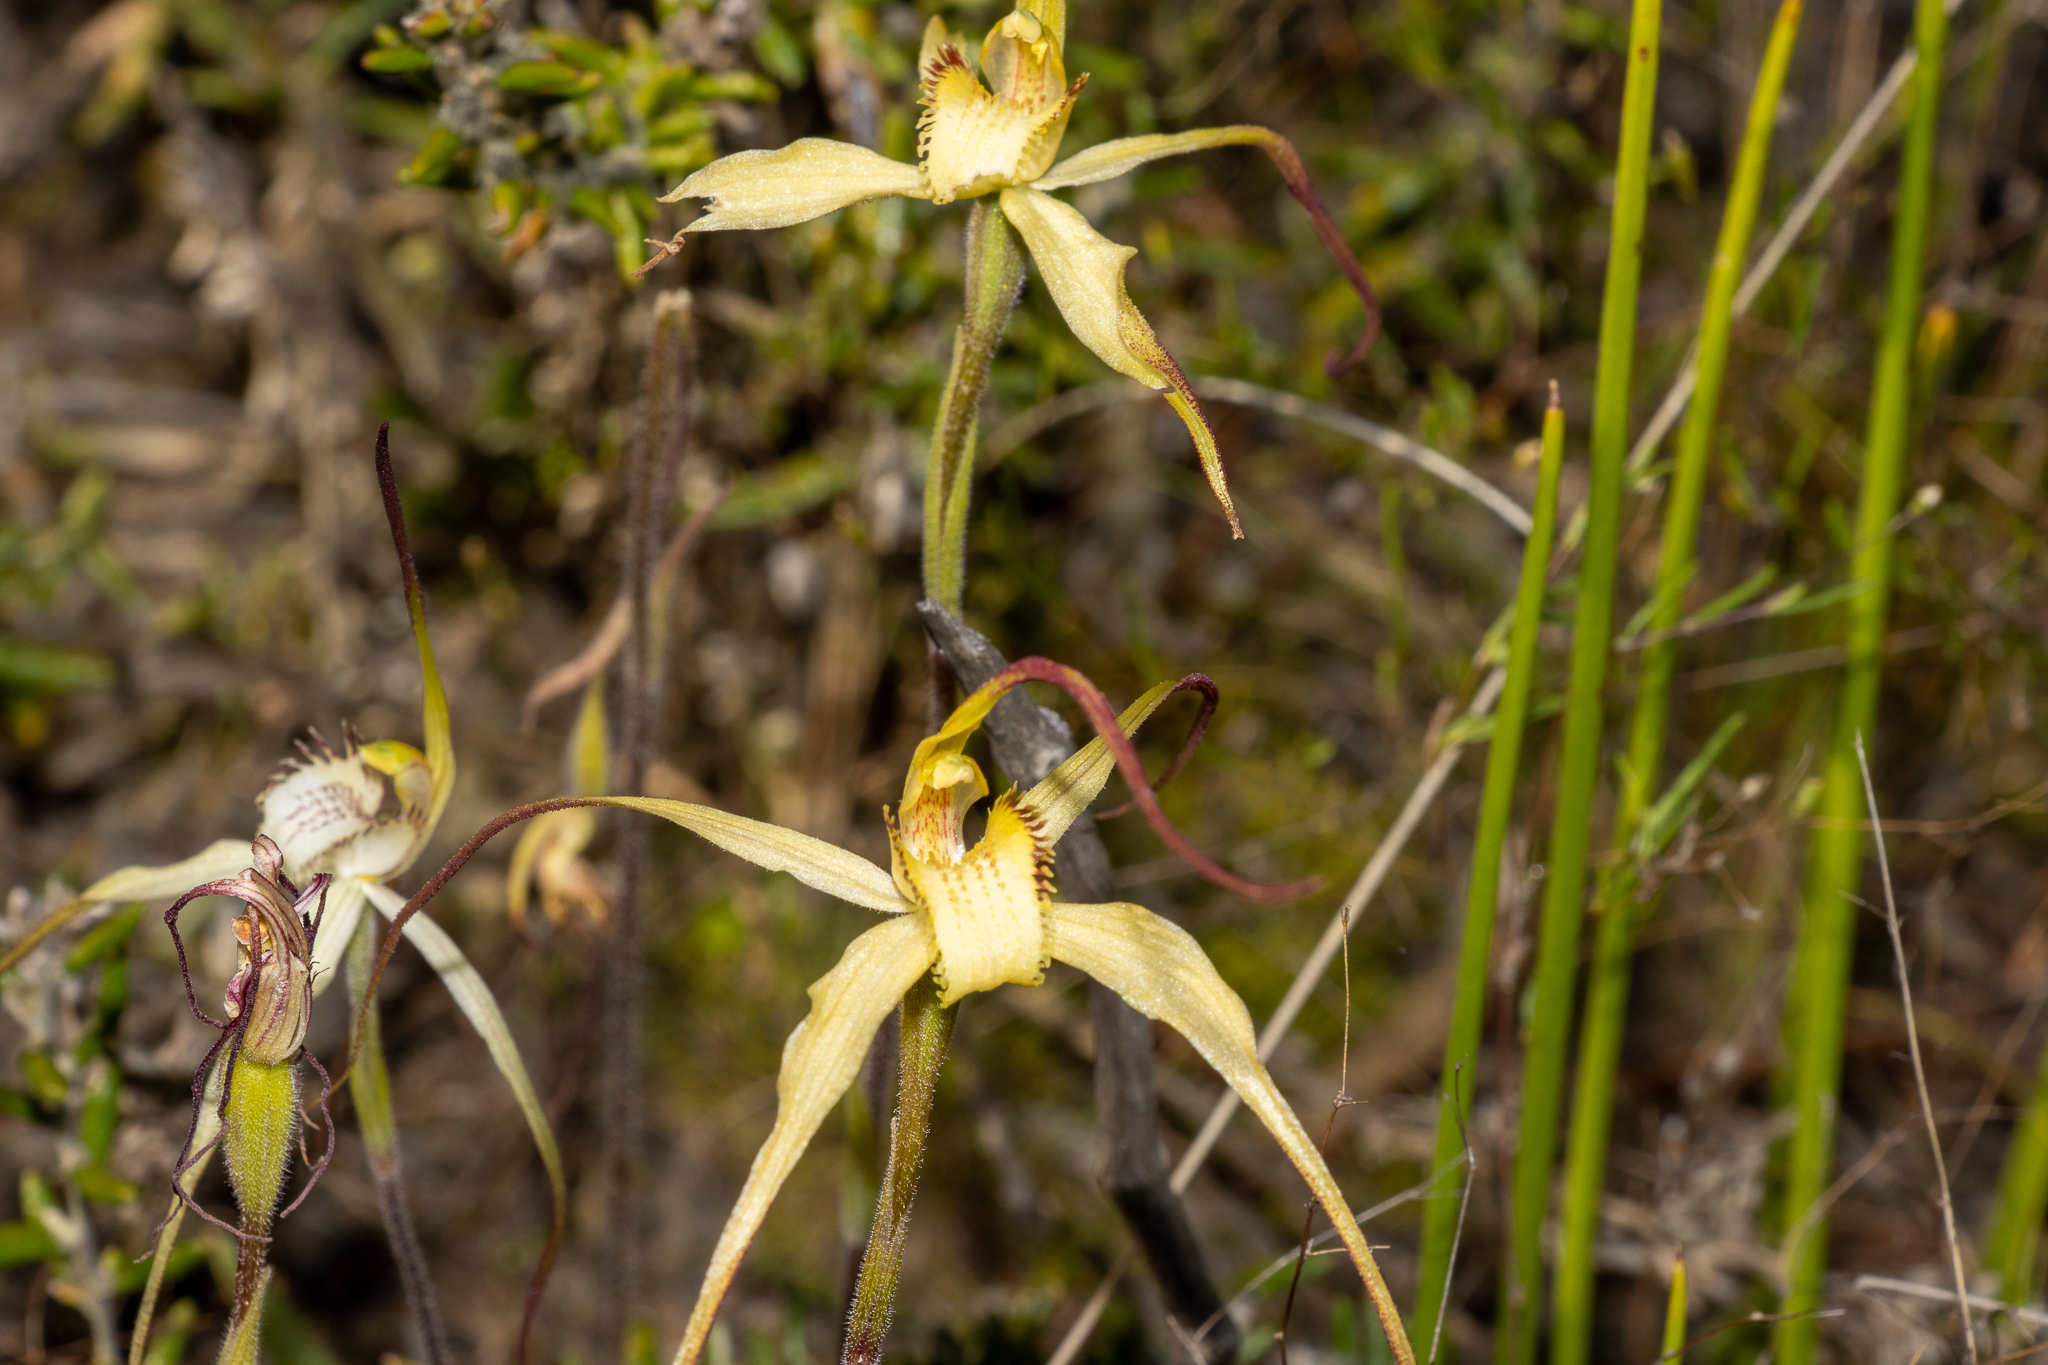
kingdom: Plantae
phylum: Tracheophyta
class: Liliopsida
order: Asparagales
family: Orchidaceae
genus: Caladenia
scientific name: Caladenia zephyra
